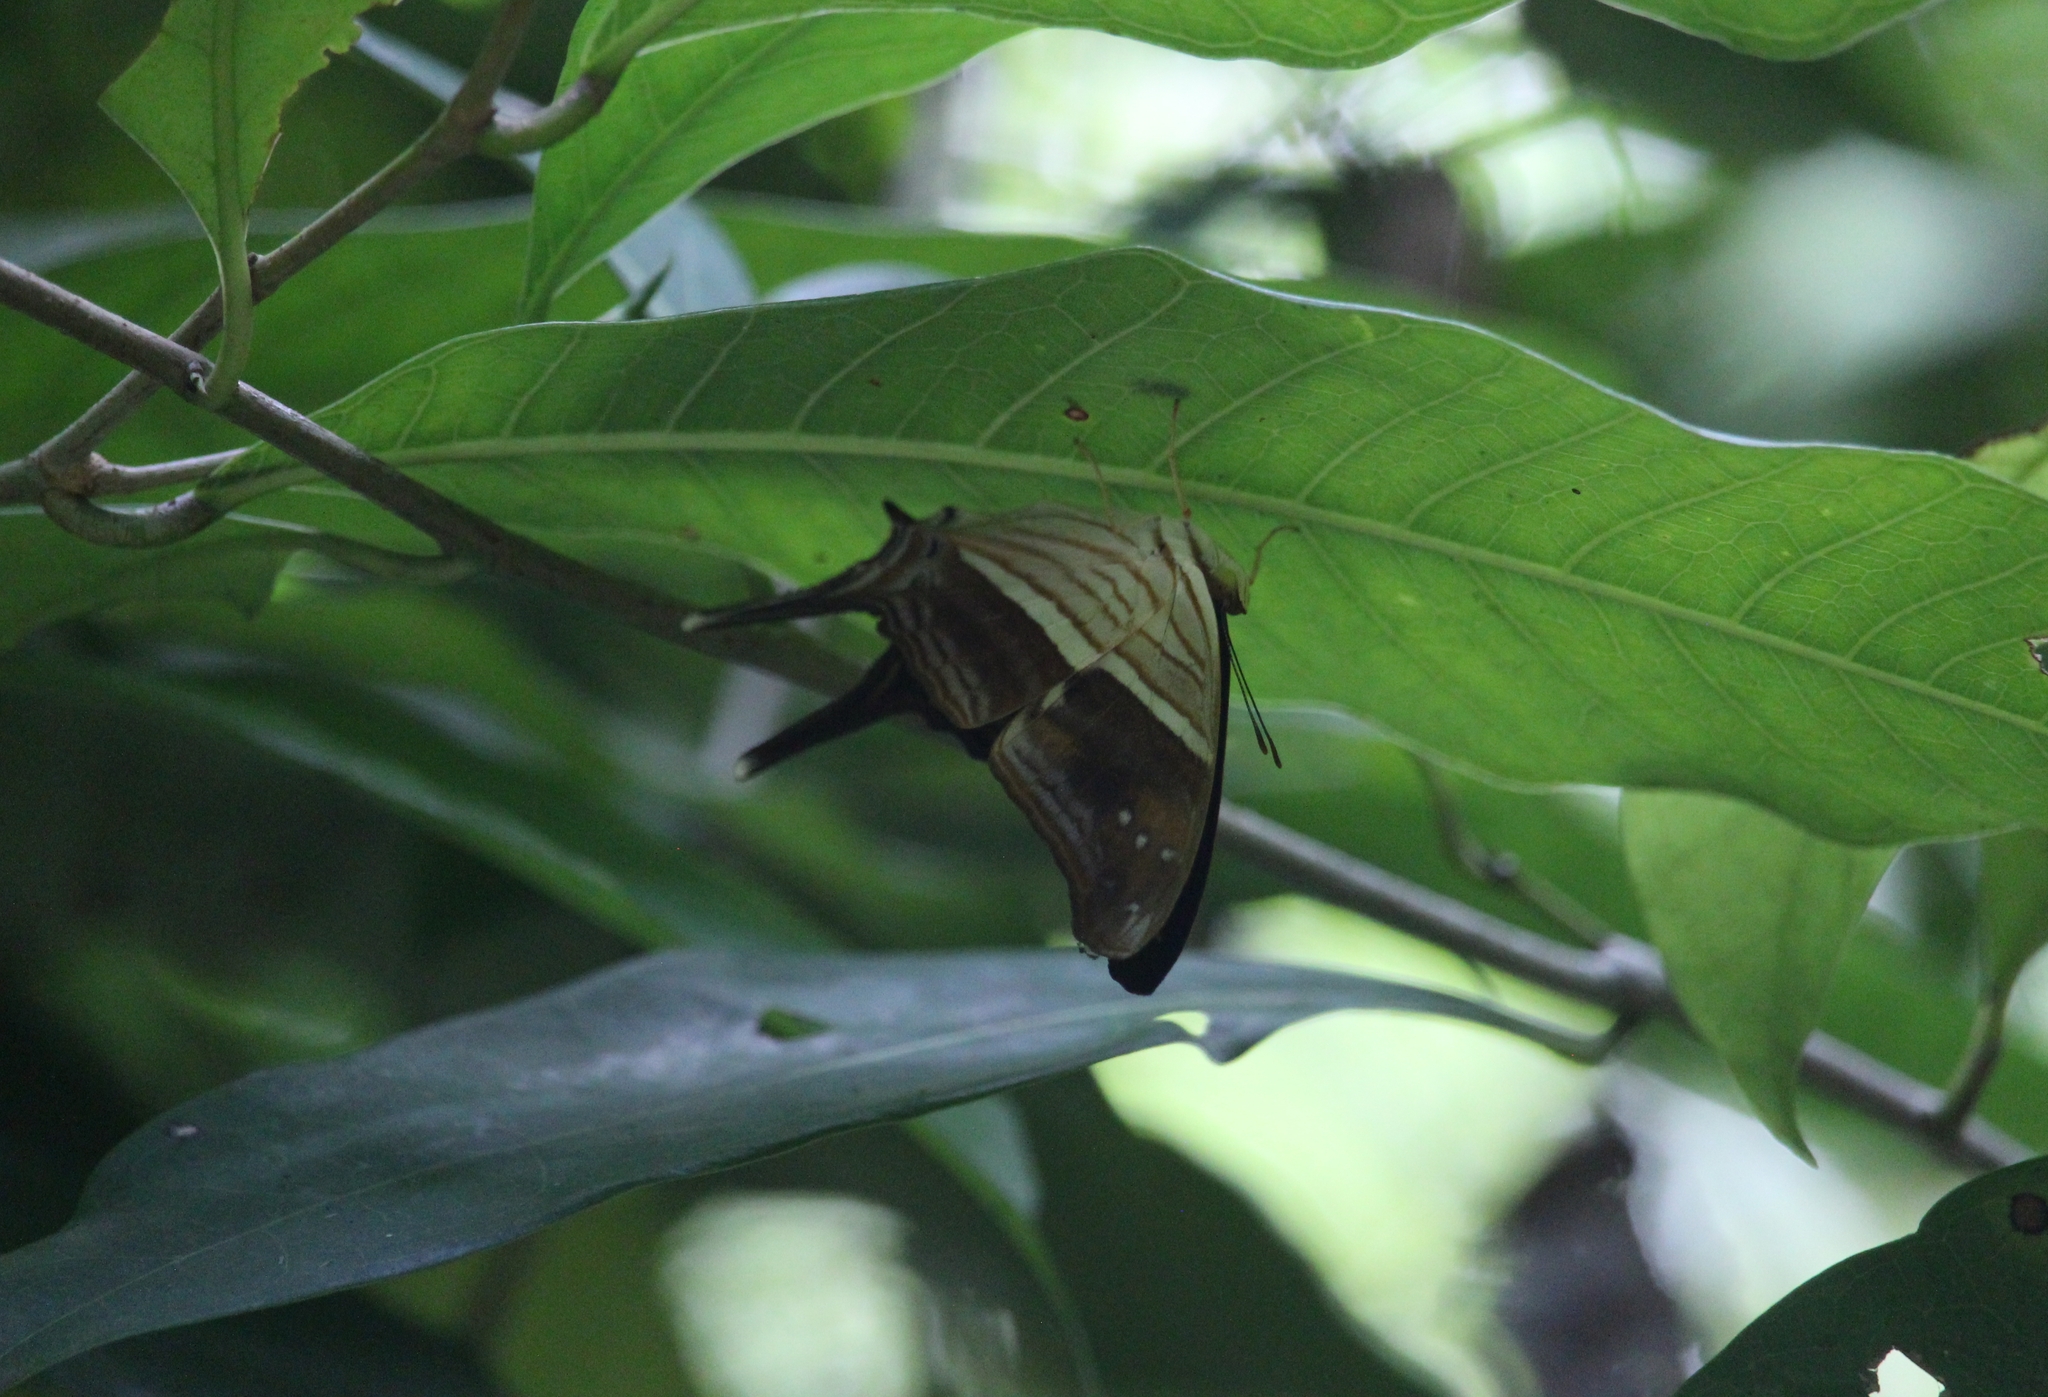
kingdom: Animalia
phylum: Arthropoda
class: Insecta
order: Lepidoptera
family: Nymphalidae
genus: Marpesia
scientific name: Marpesia chiron
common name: Many-banded daggerwing
